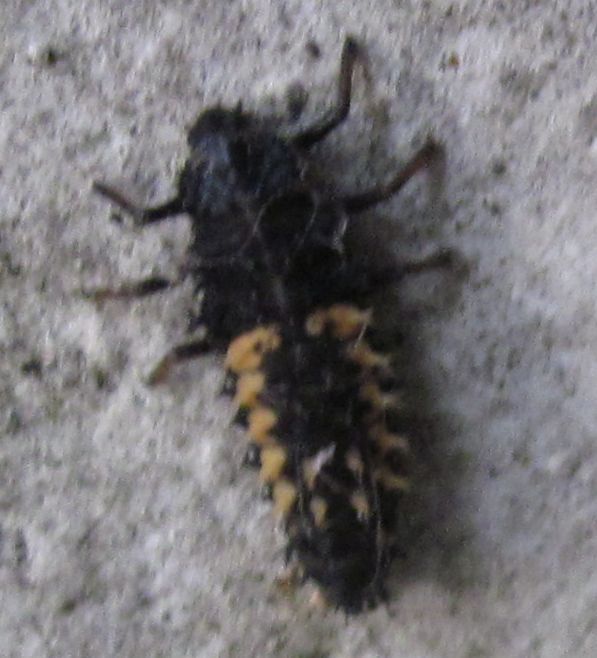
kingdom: Animalia
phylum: Arthropoda
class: Insecta
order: Coleoptera
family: Coccinellidae
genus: Harmonia
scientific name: Harmonia axyridis
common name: Harlequin ladybird
